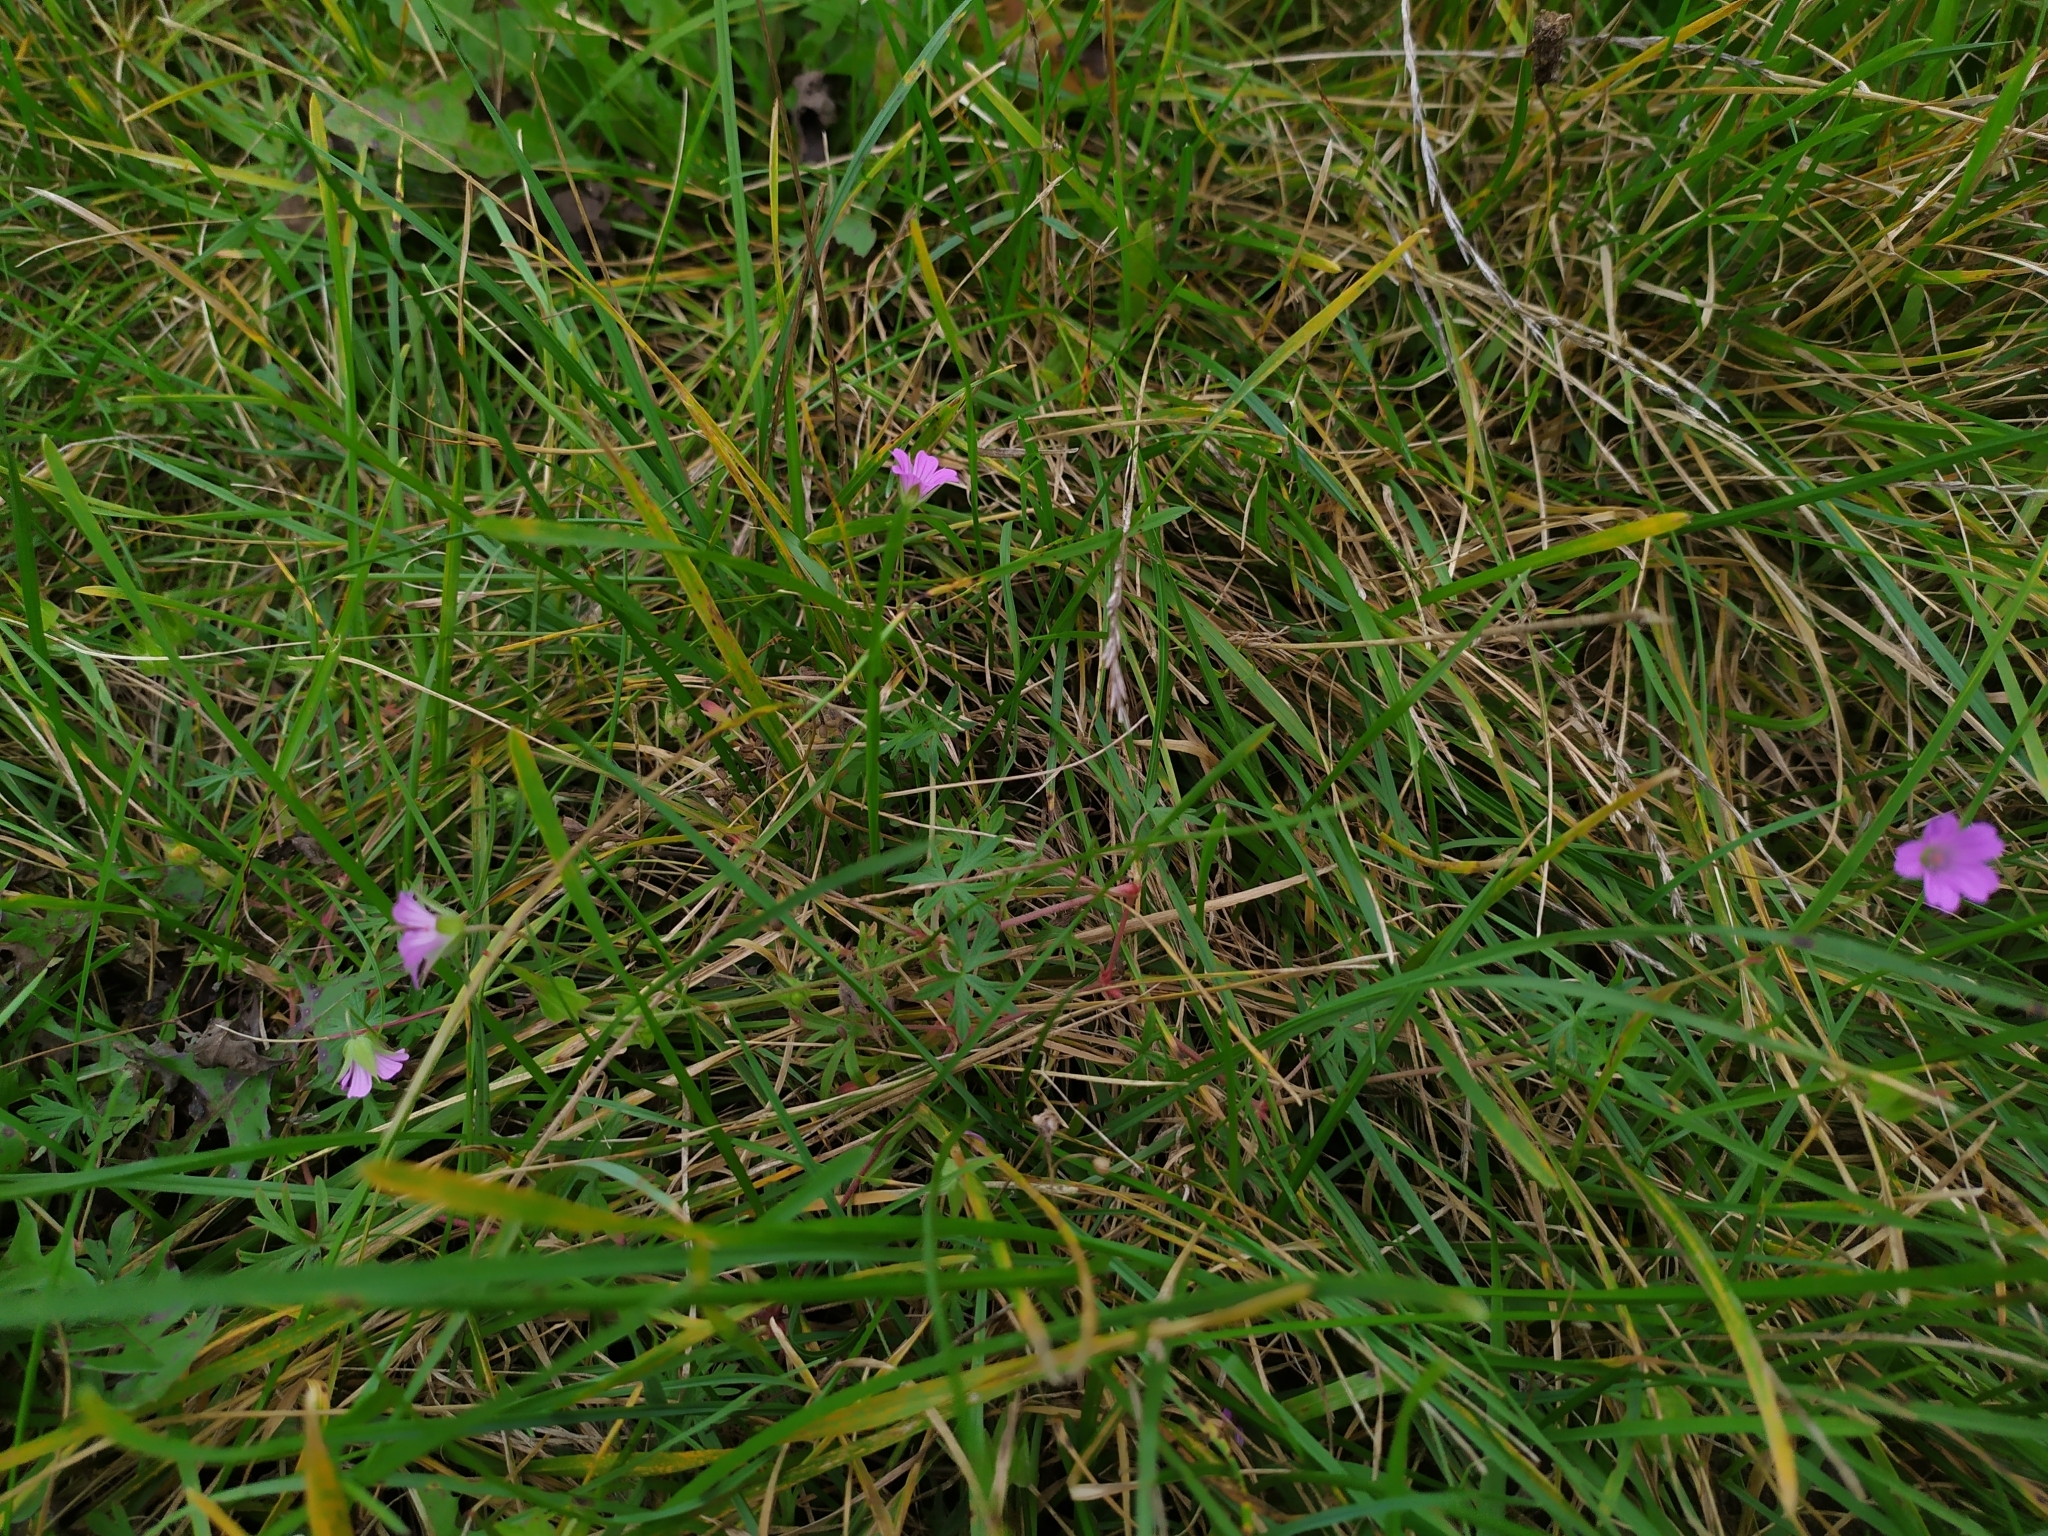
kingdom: Plantae
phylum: Tracheophyta
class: Magnoliopsida
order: Geraniales
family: Geraniaceae
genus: Geranium
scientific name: Geranium columbinum
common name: Long-stalked crane's-bill
